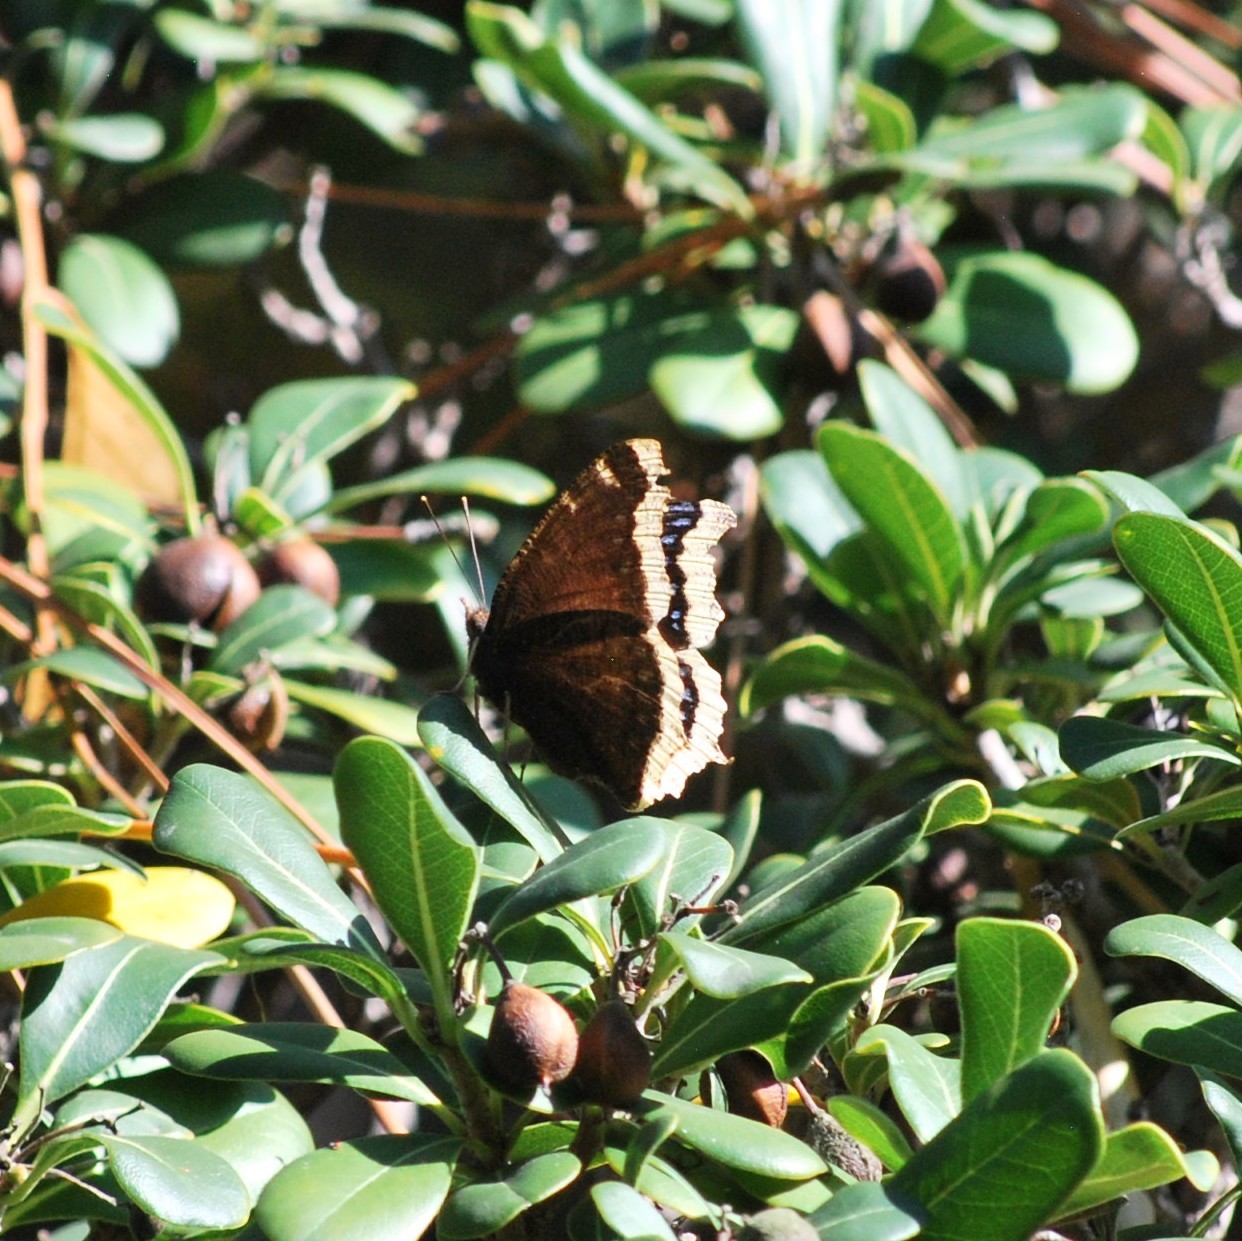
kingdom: Animalia
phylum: Arthropoda
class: Insecta
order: Lepidoptera
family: Nymphalidae
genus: Nymphalis
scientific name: Nymphalis antiopa
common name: Camberwell beauty
